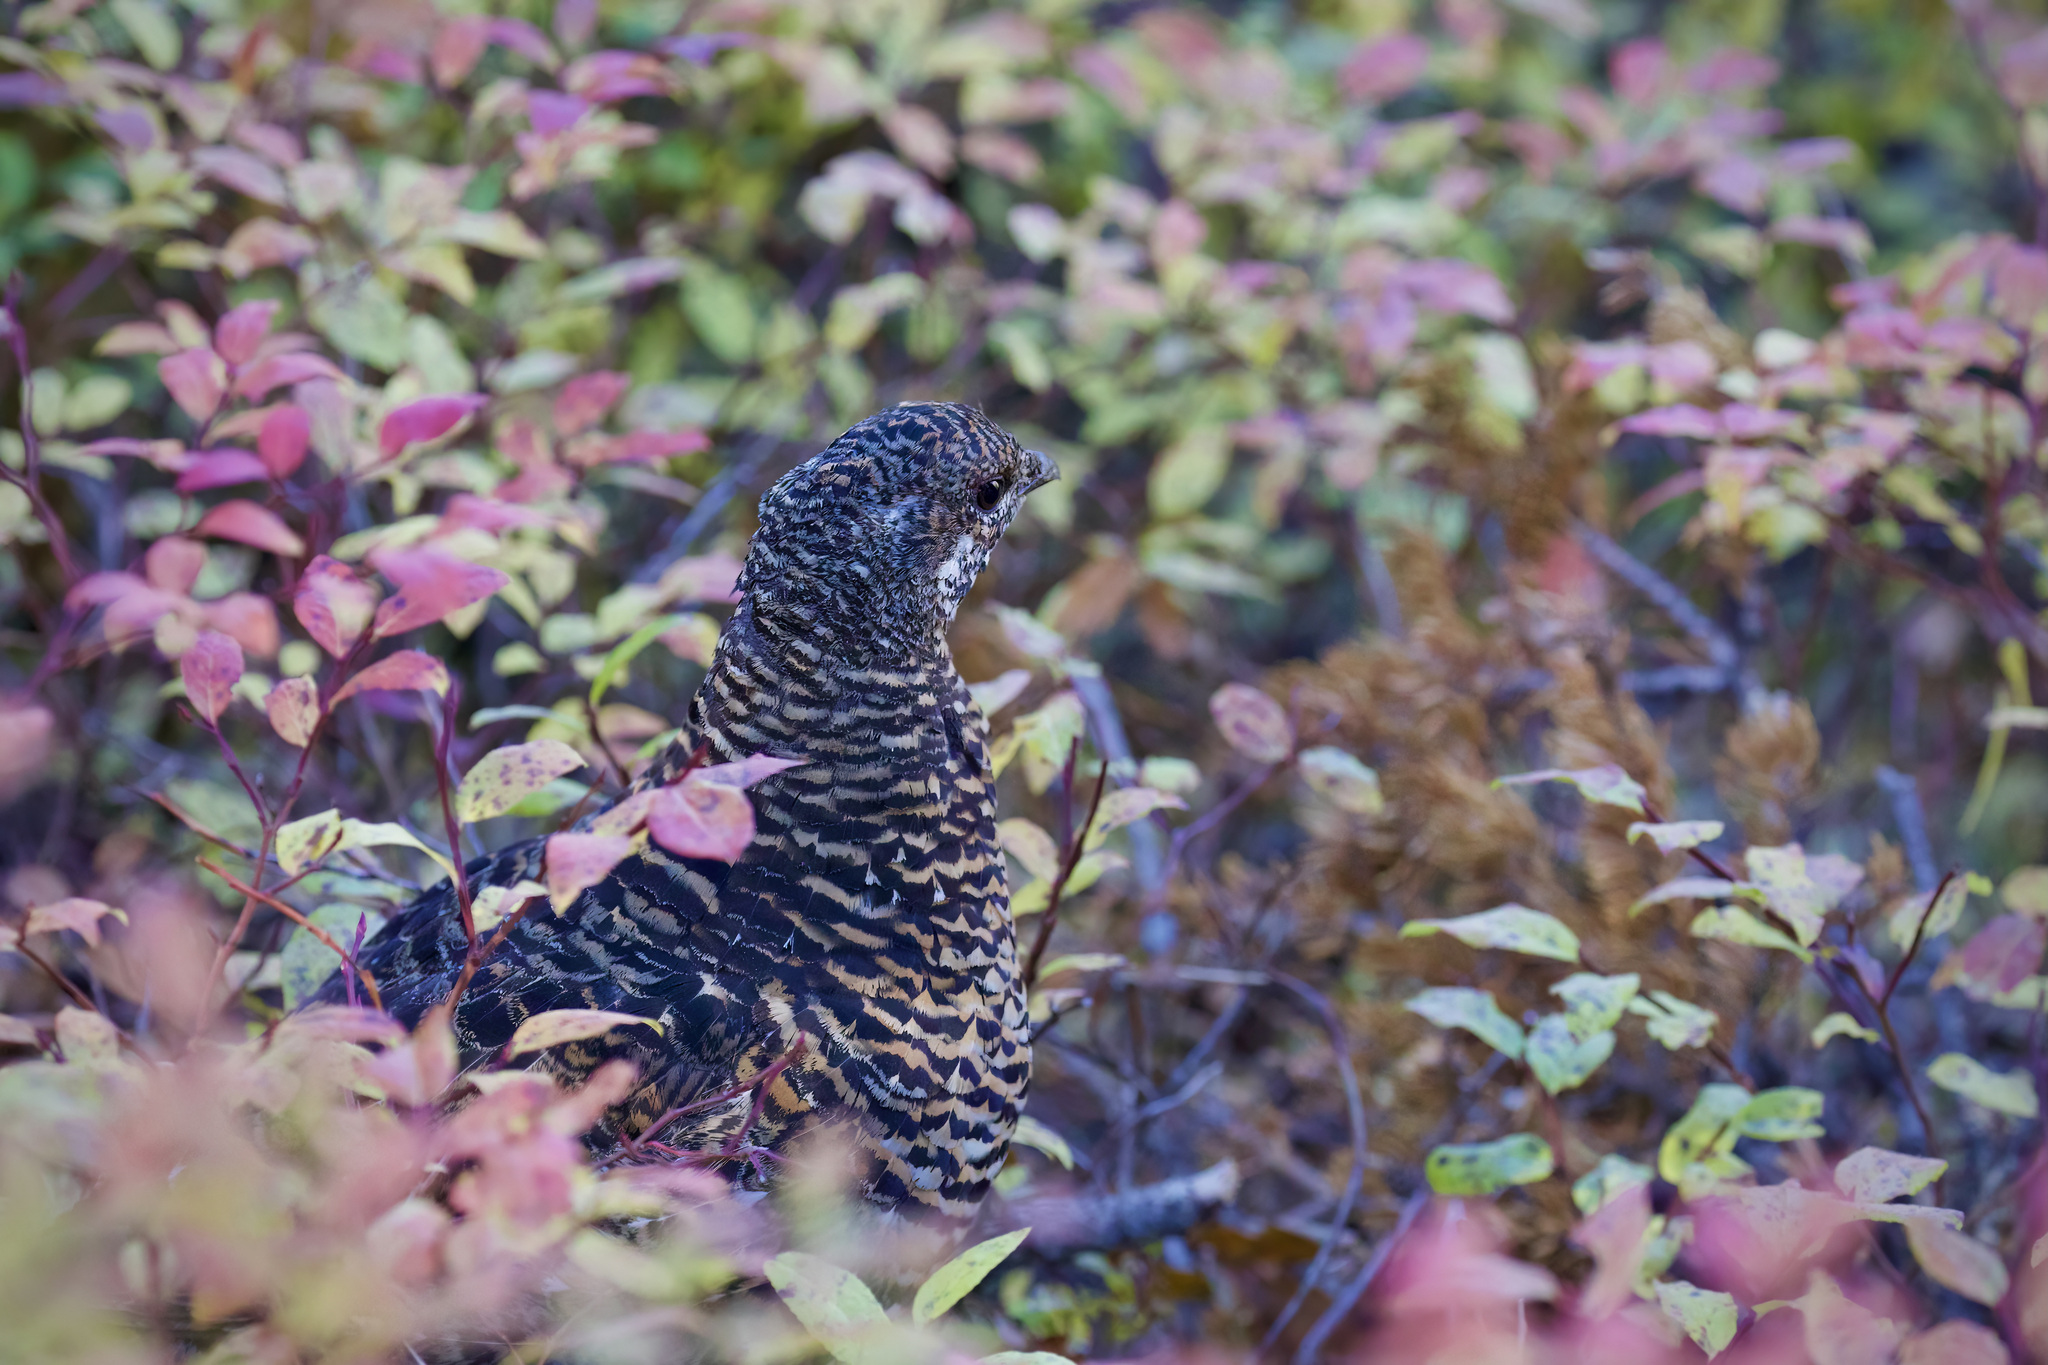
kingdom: Animalia
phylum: Chordata
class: Aves
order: Galliformes
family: Phasianidae
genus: Canachites
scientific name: Canachites canadensis
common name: Spruce grouse
